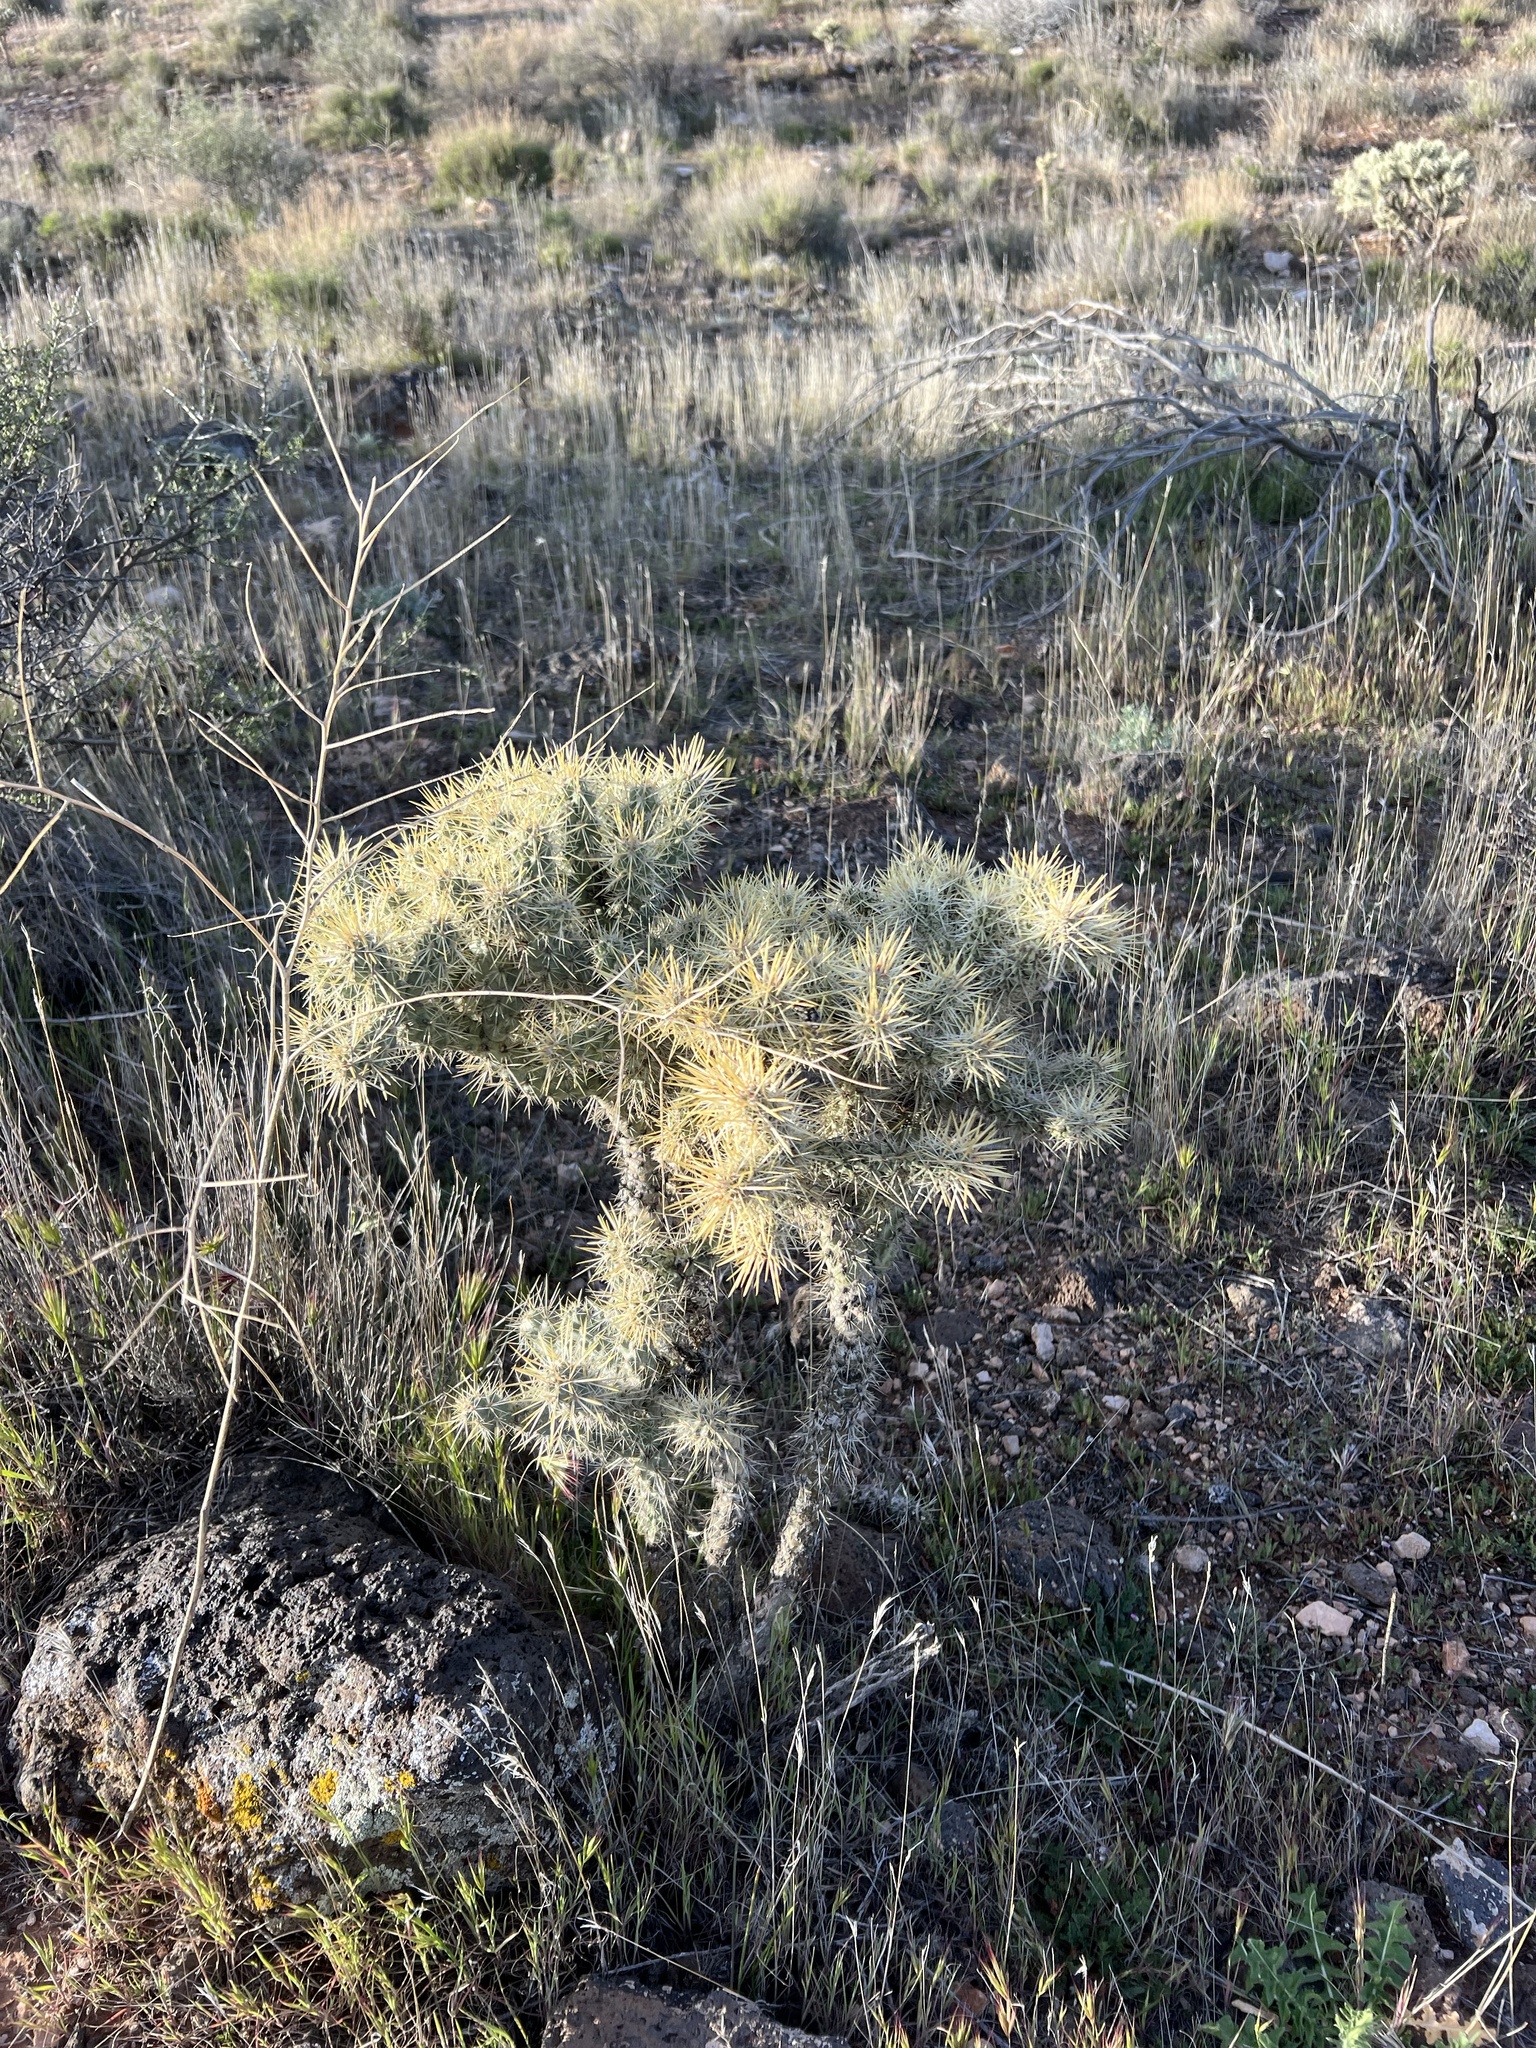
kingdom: Plantae
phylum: Tracheophyta
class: Magnoliopsida
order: Caryophyllales
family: Cactaceae
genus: Cylindropuntia
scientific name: Cylindropuntia echinocarpa
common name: Ground cholla
